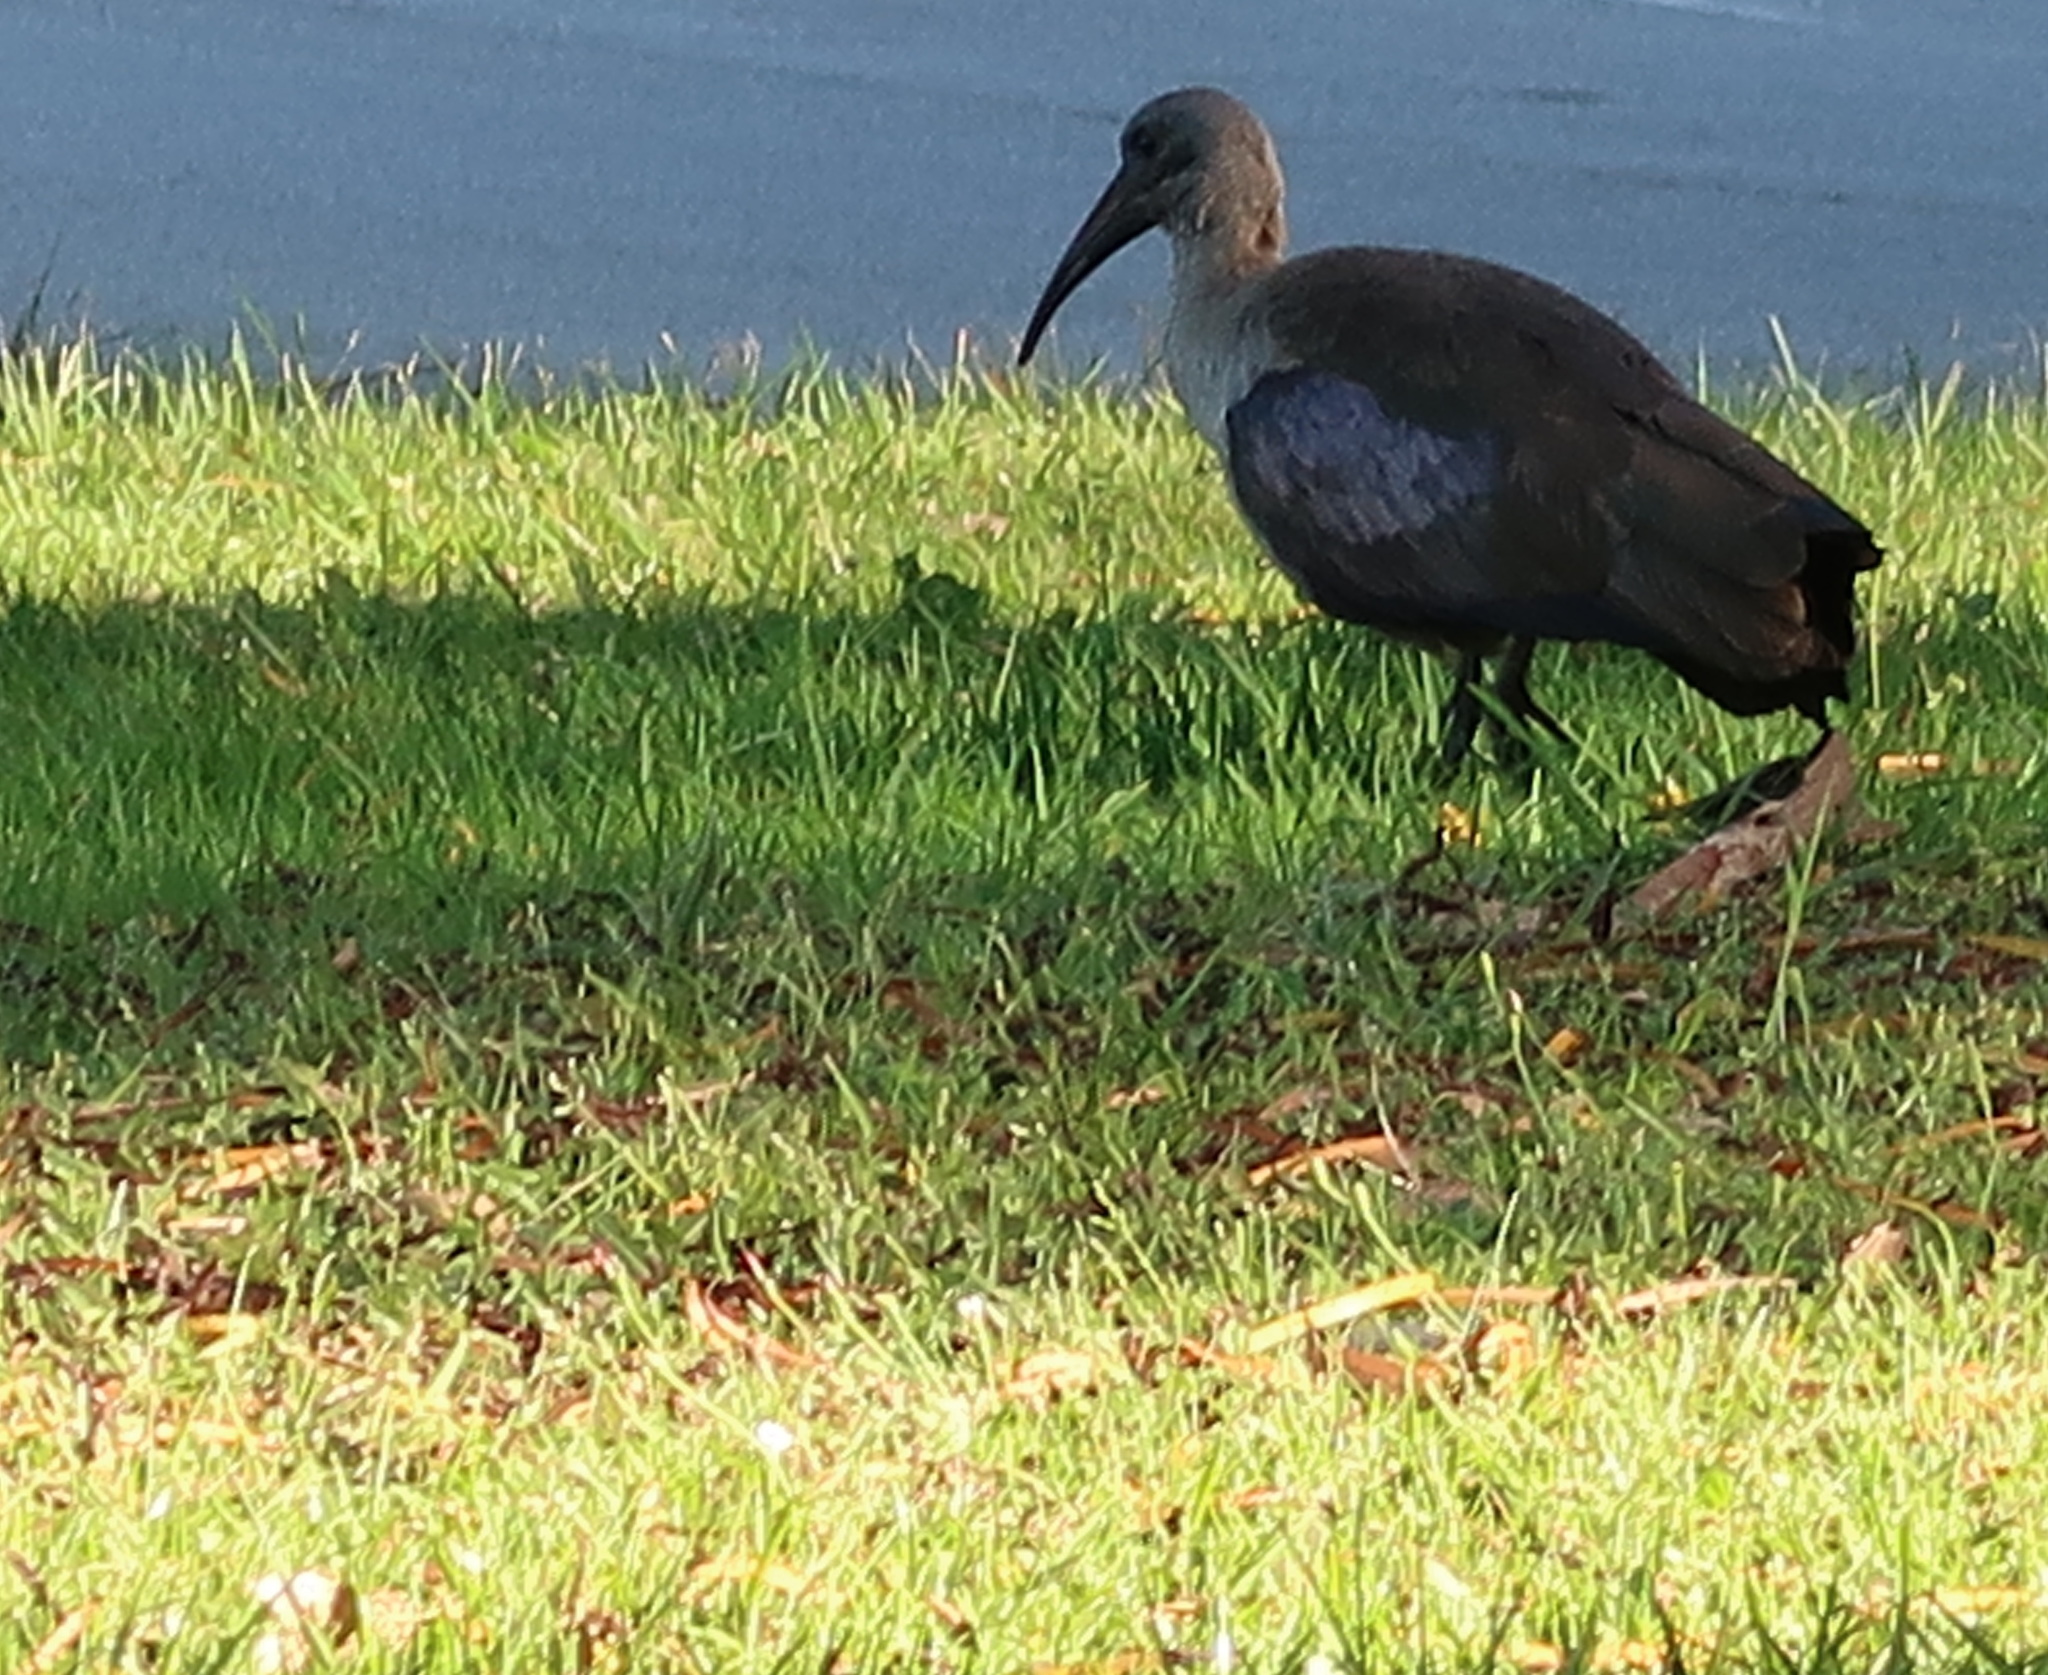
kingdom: Animalia
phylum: Chordata
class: Aves
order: Pelecaniformes
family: Threskiornithidae
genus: Bostrychia
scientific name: Bostrychia hagedash
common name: Hadada ibis
